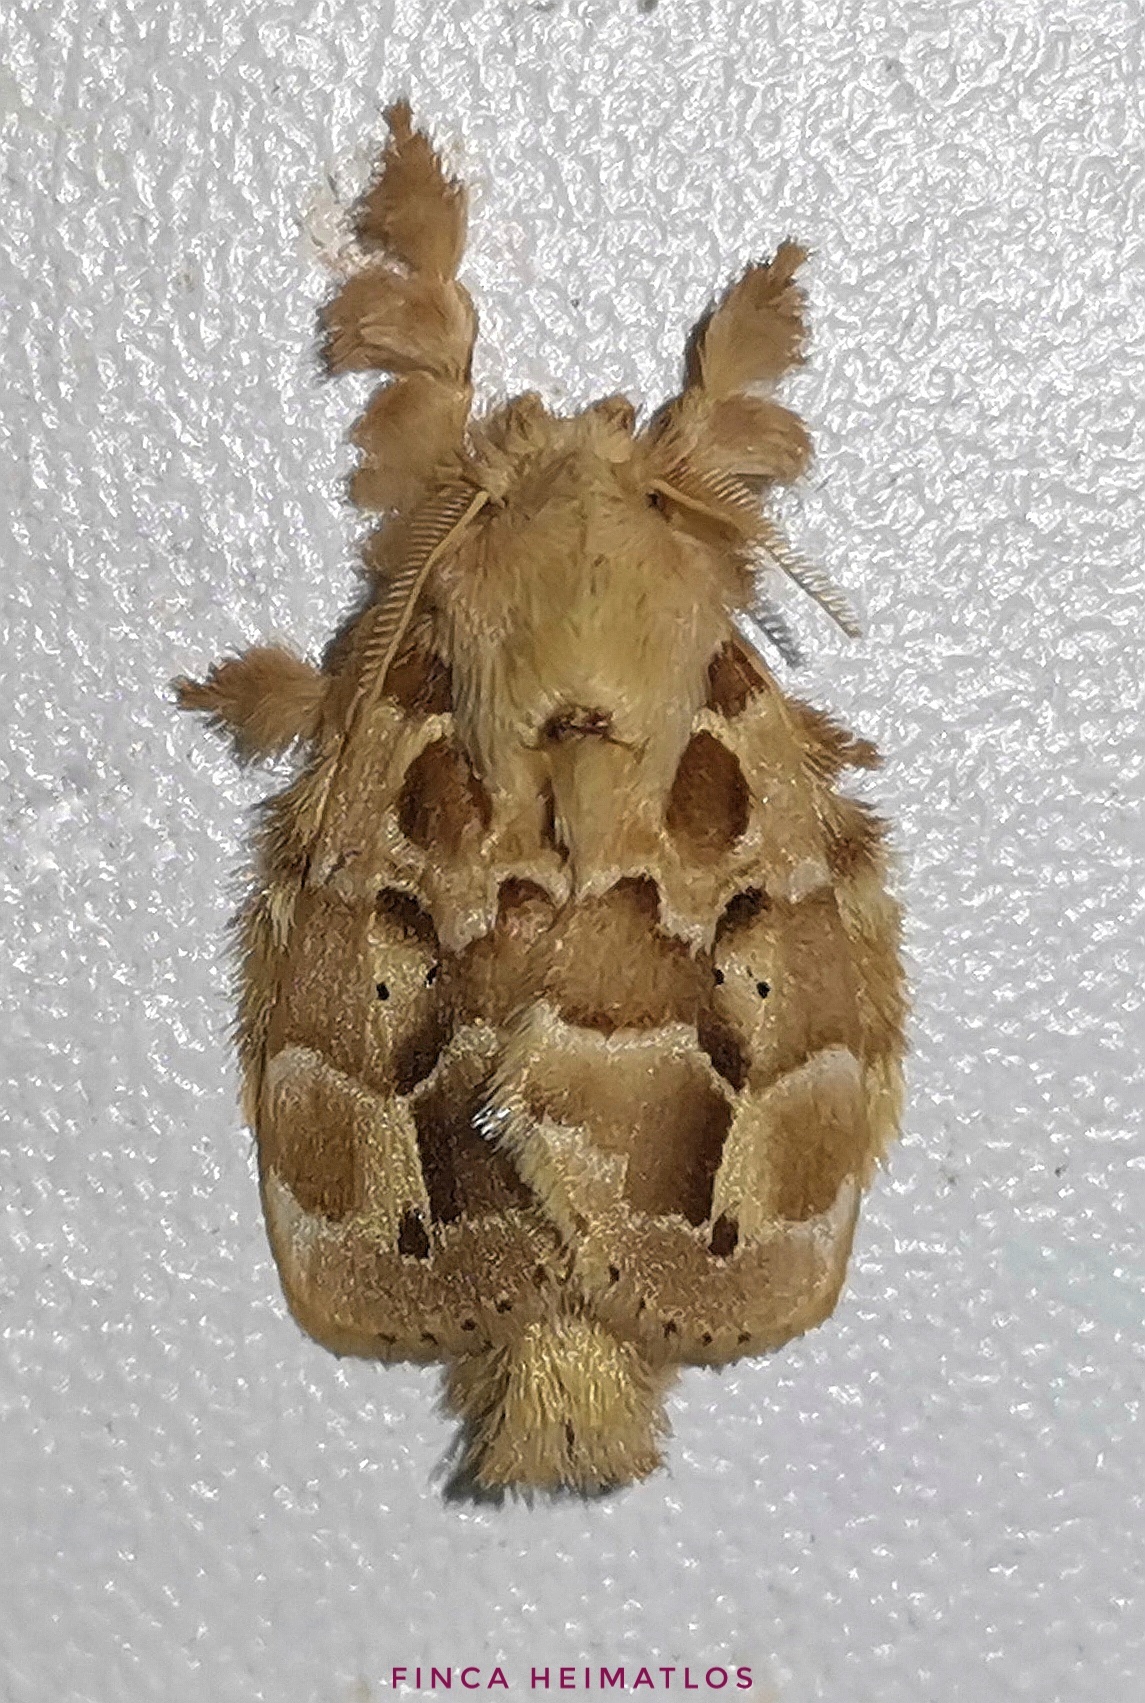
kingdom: Animalia
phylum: Arthropoda
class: Insecta
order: Lepidoptera
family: Lasiocampidae
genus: Nesara
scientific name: Nesara
